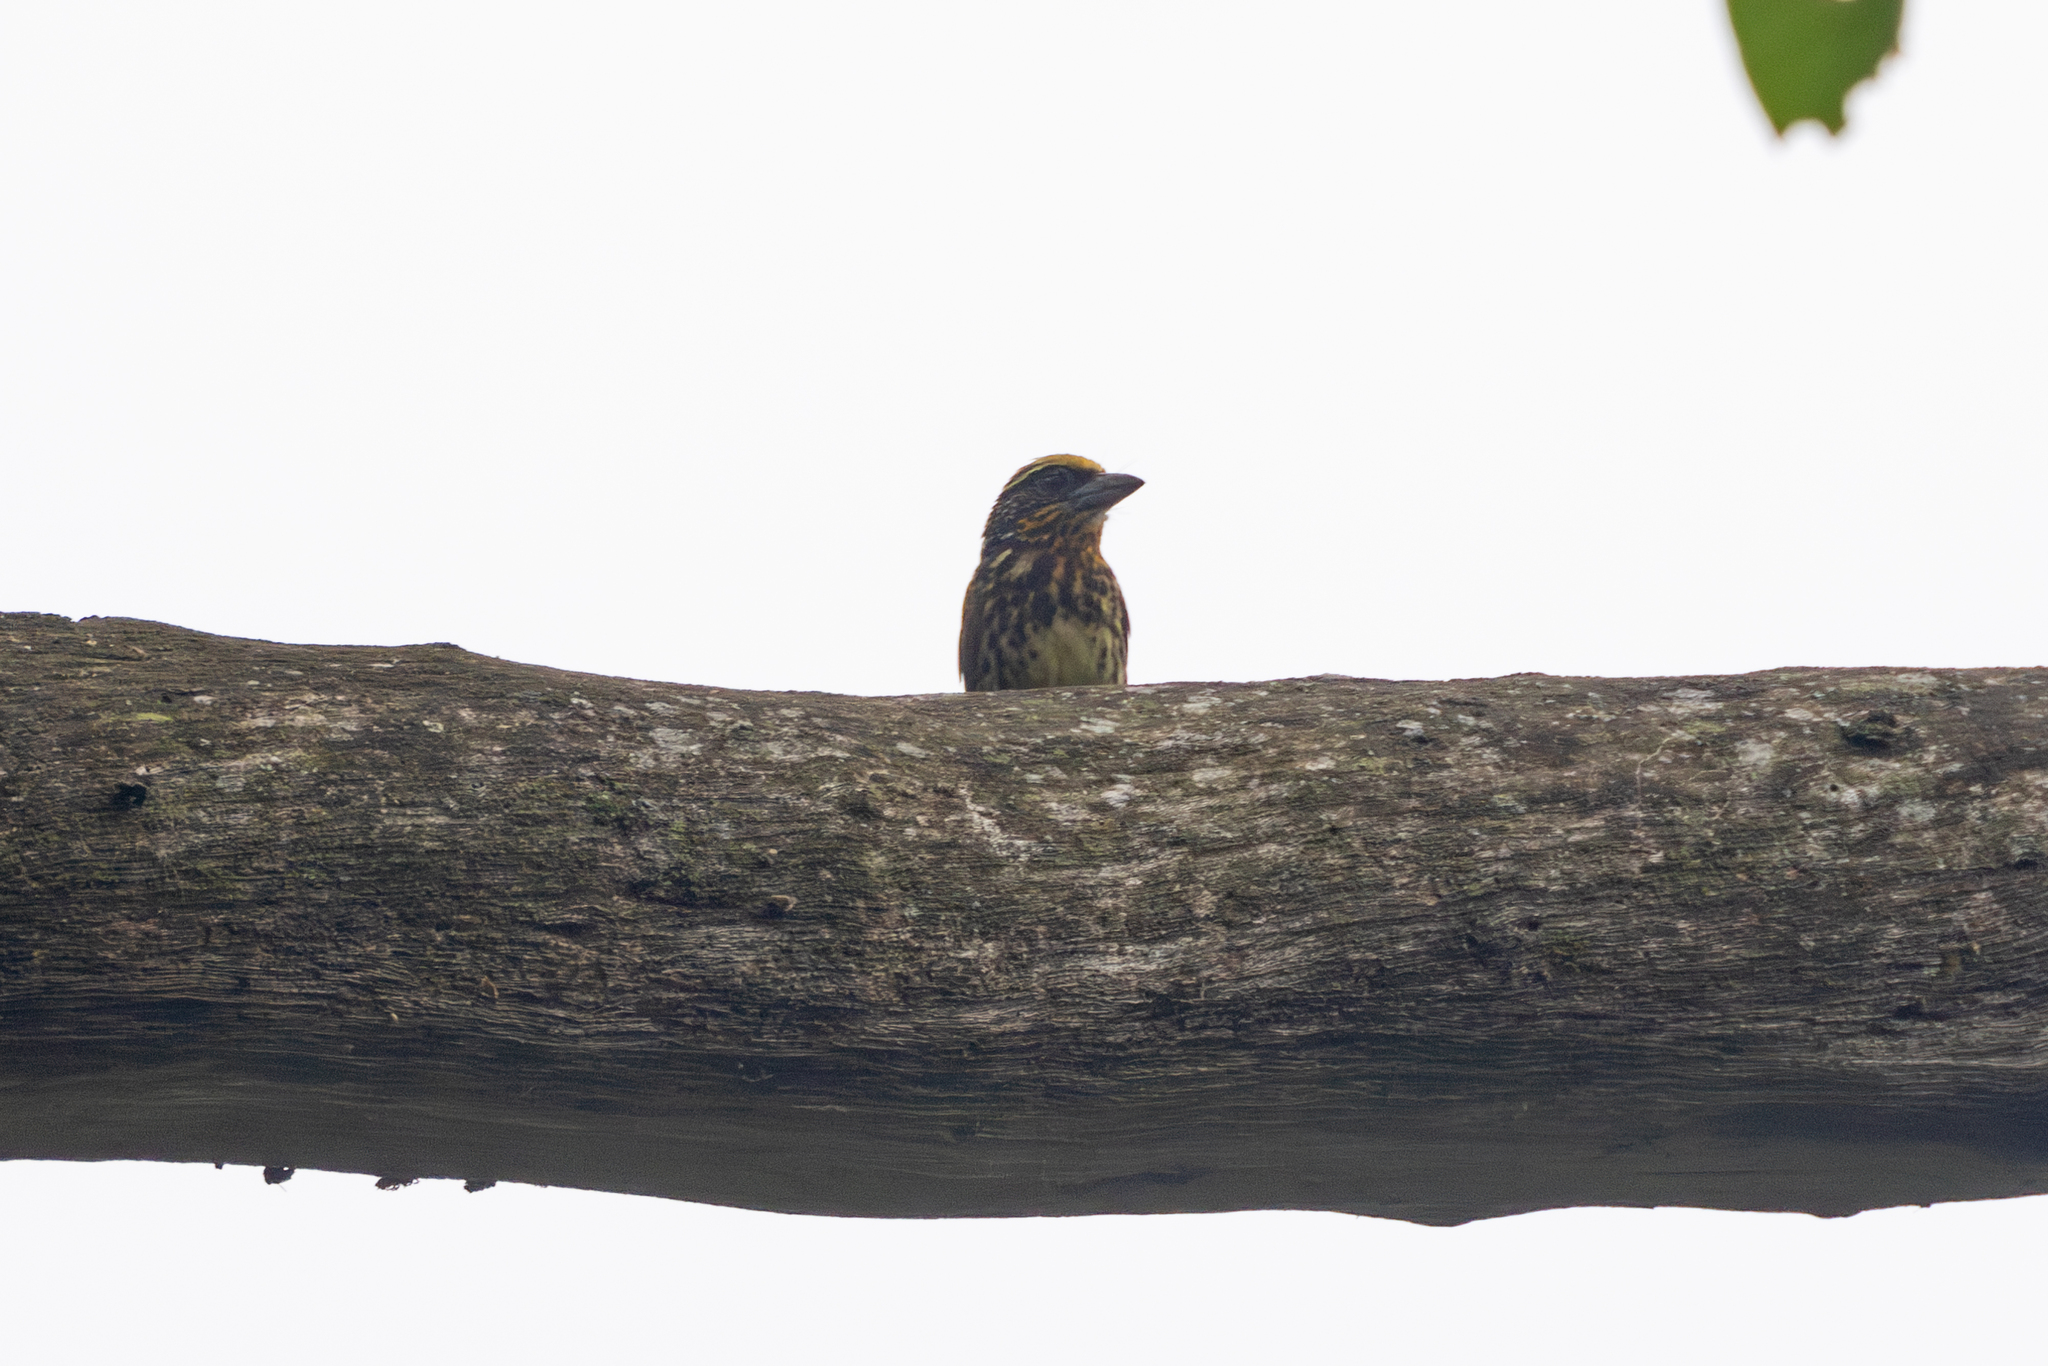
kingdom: Animalia
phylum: Chordata
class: Aves
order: Piciformes
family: Capitonidae
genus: Capito
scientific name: Capito auratus
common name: Gilded barbet
